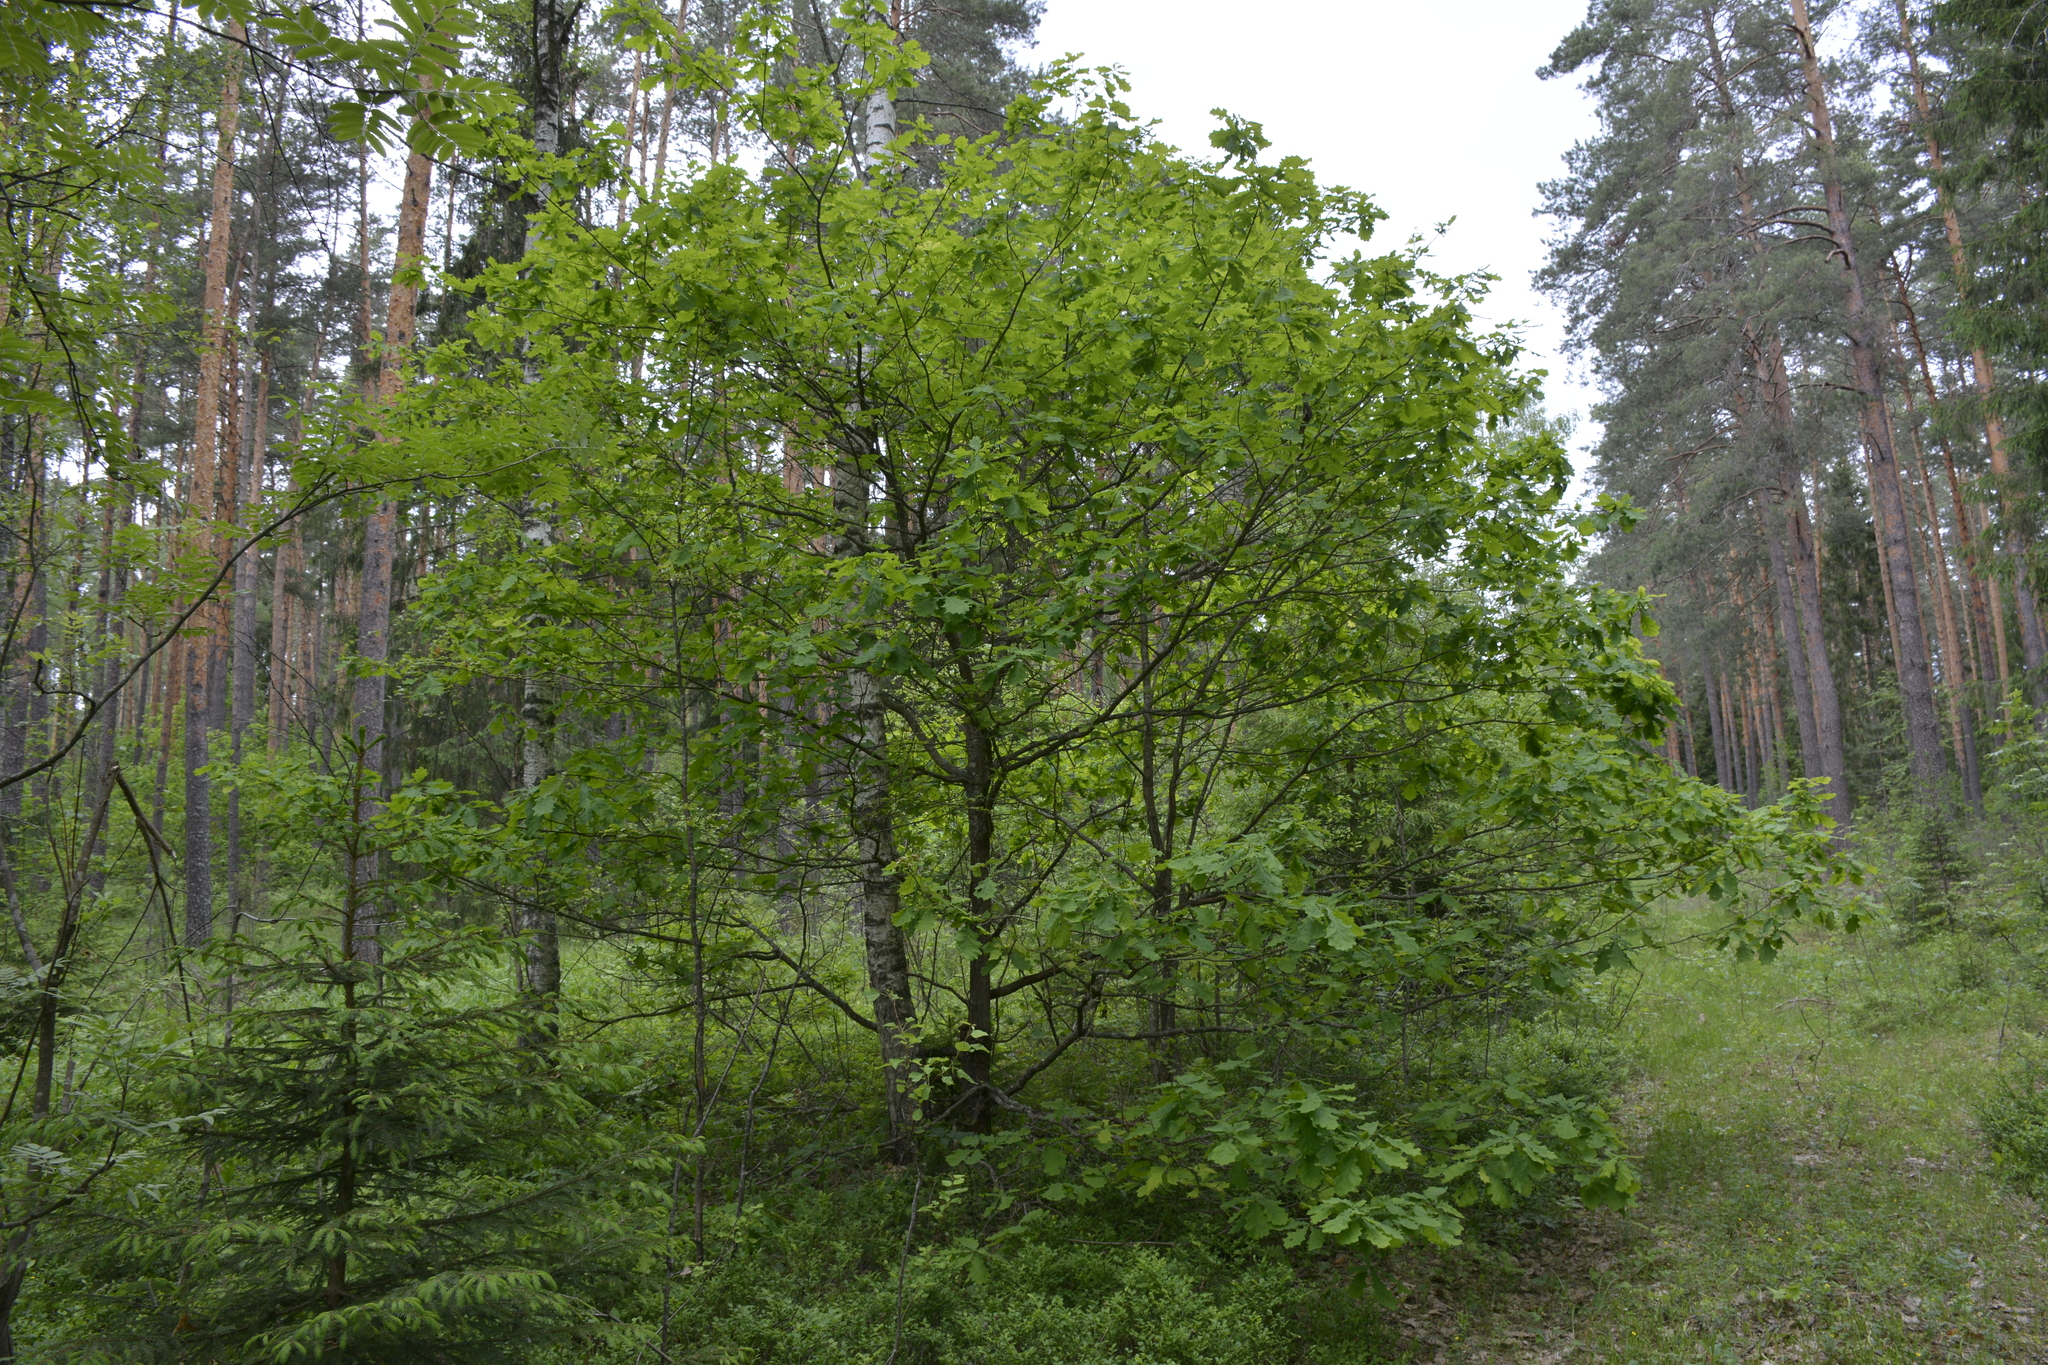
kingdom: Plantae
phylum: Tracheophyta
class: Magnoliopsida
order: Fagales
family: Fagaceae
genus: Quercus
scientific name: Quercus robur
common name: Pedunculate oak
